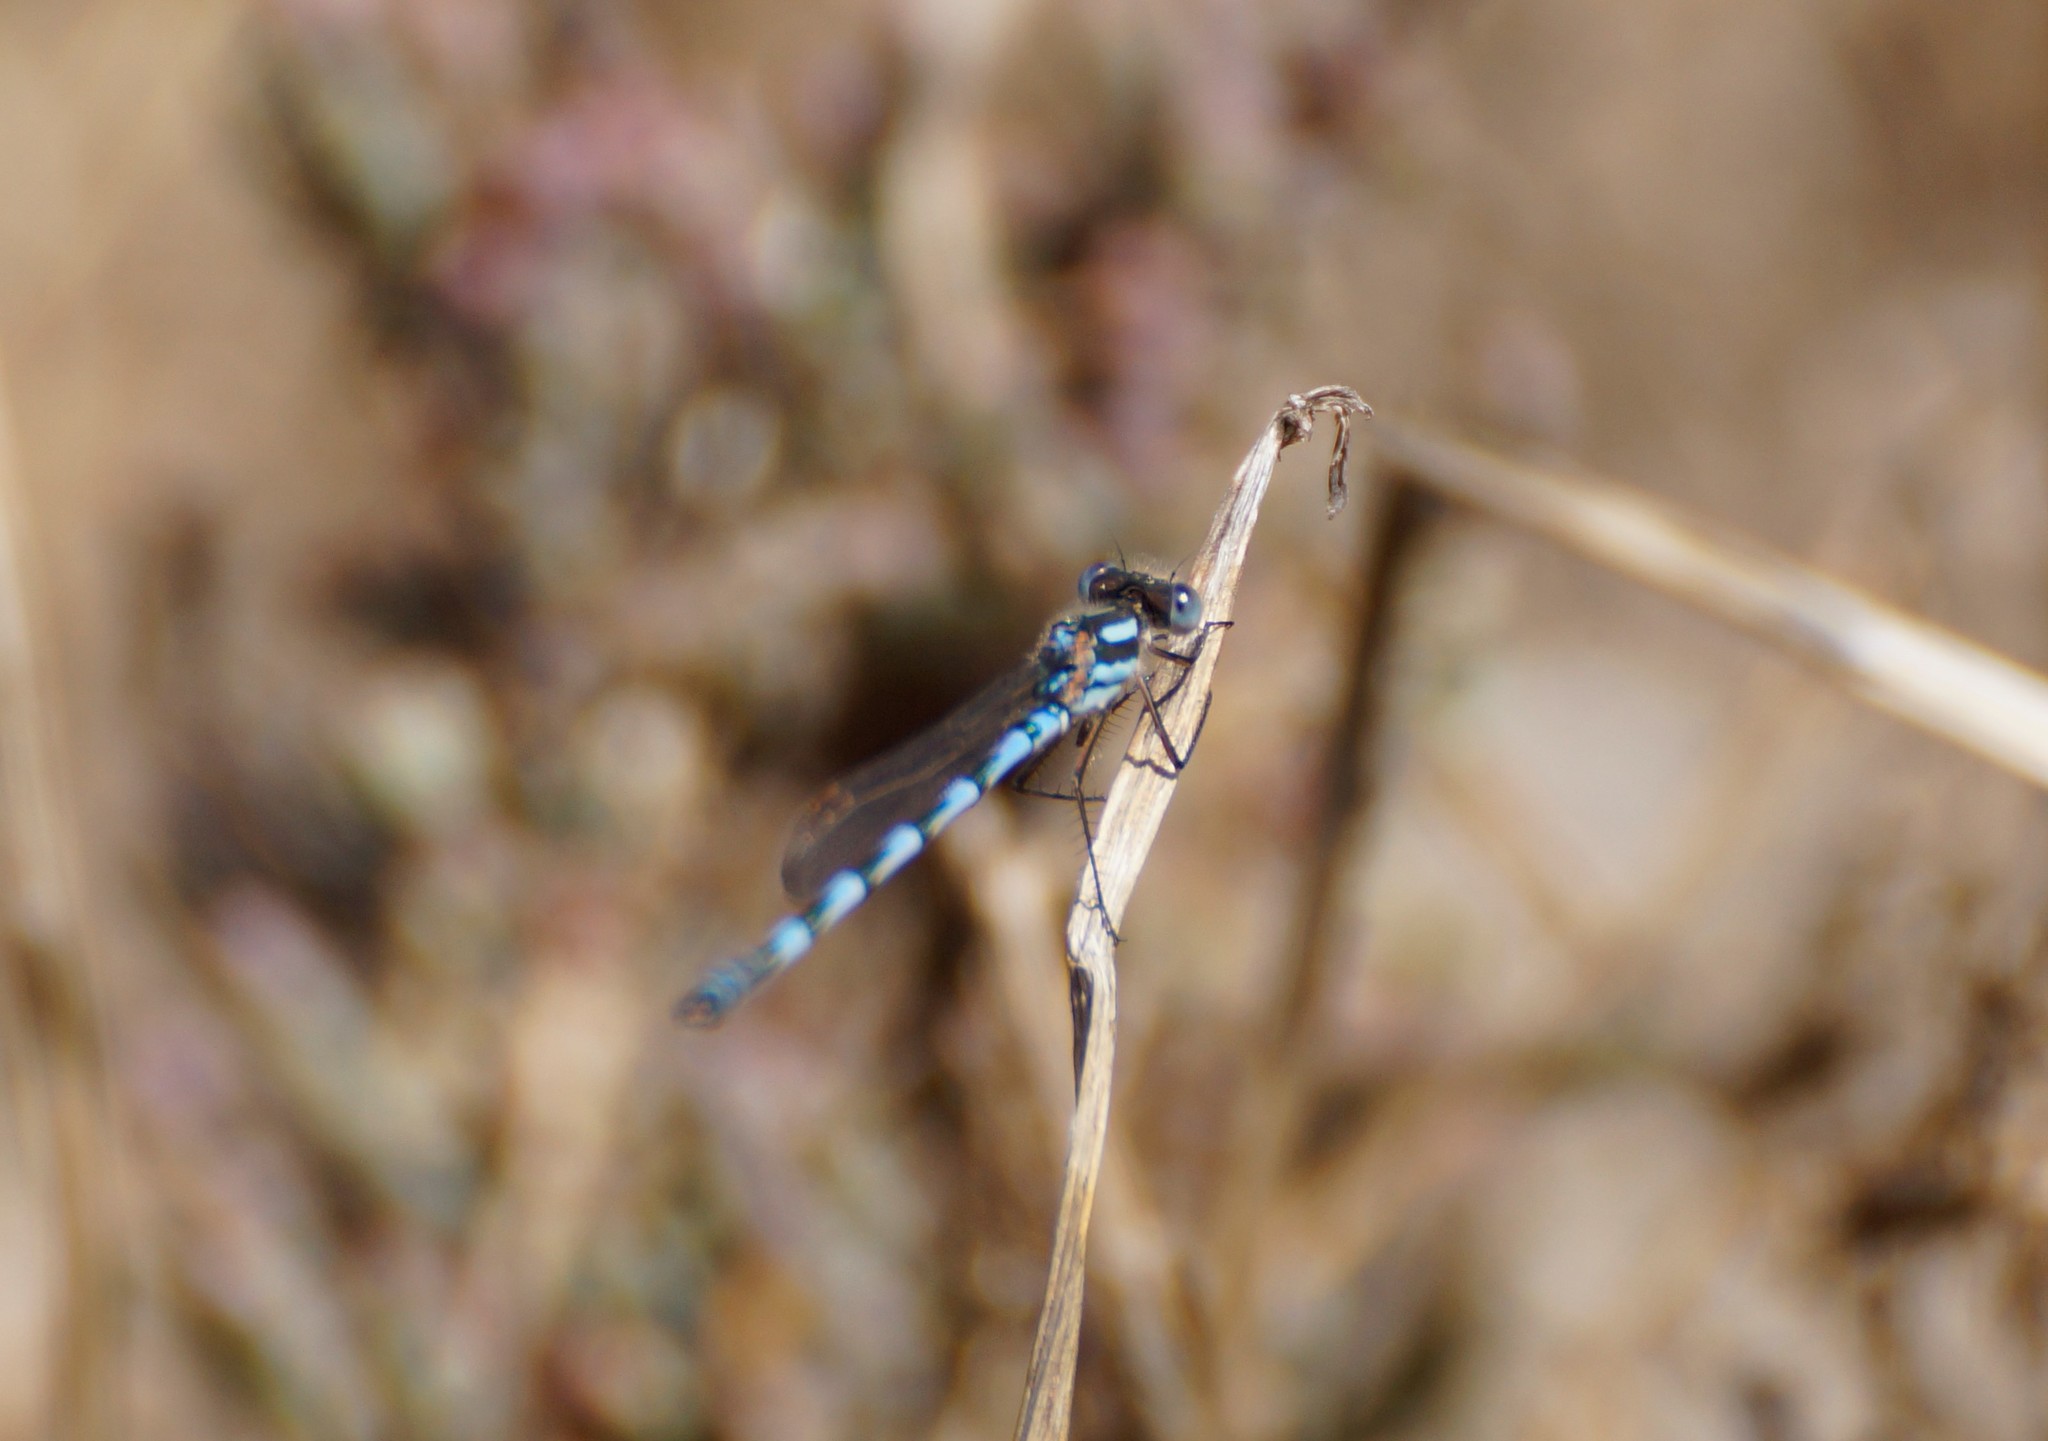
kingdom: Animalia
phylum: Arthropoda
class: Insecta
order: Odonata
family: Lestidae
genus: Austrolestes
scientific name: Austrolestes annulosus
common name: Blue ringtail
